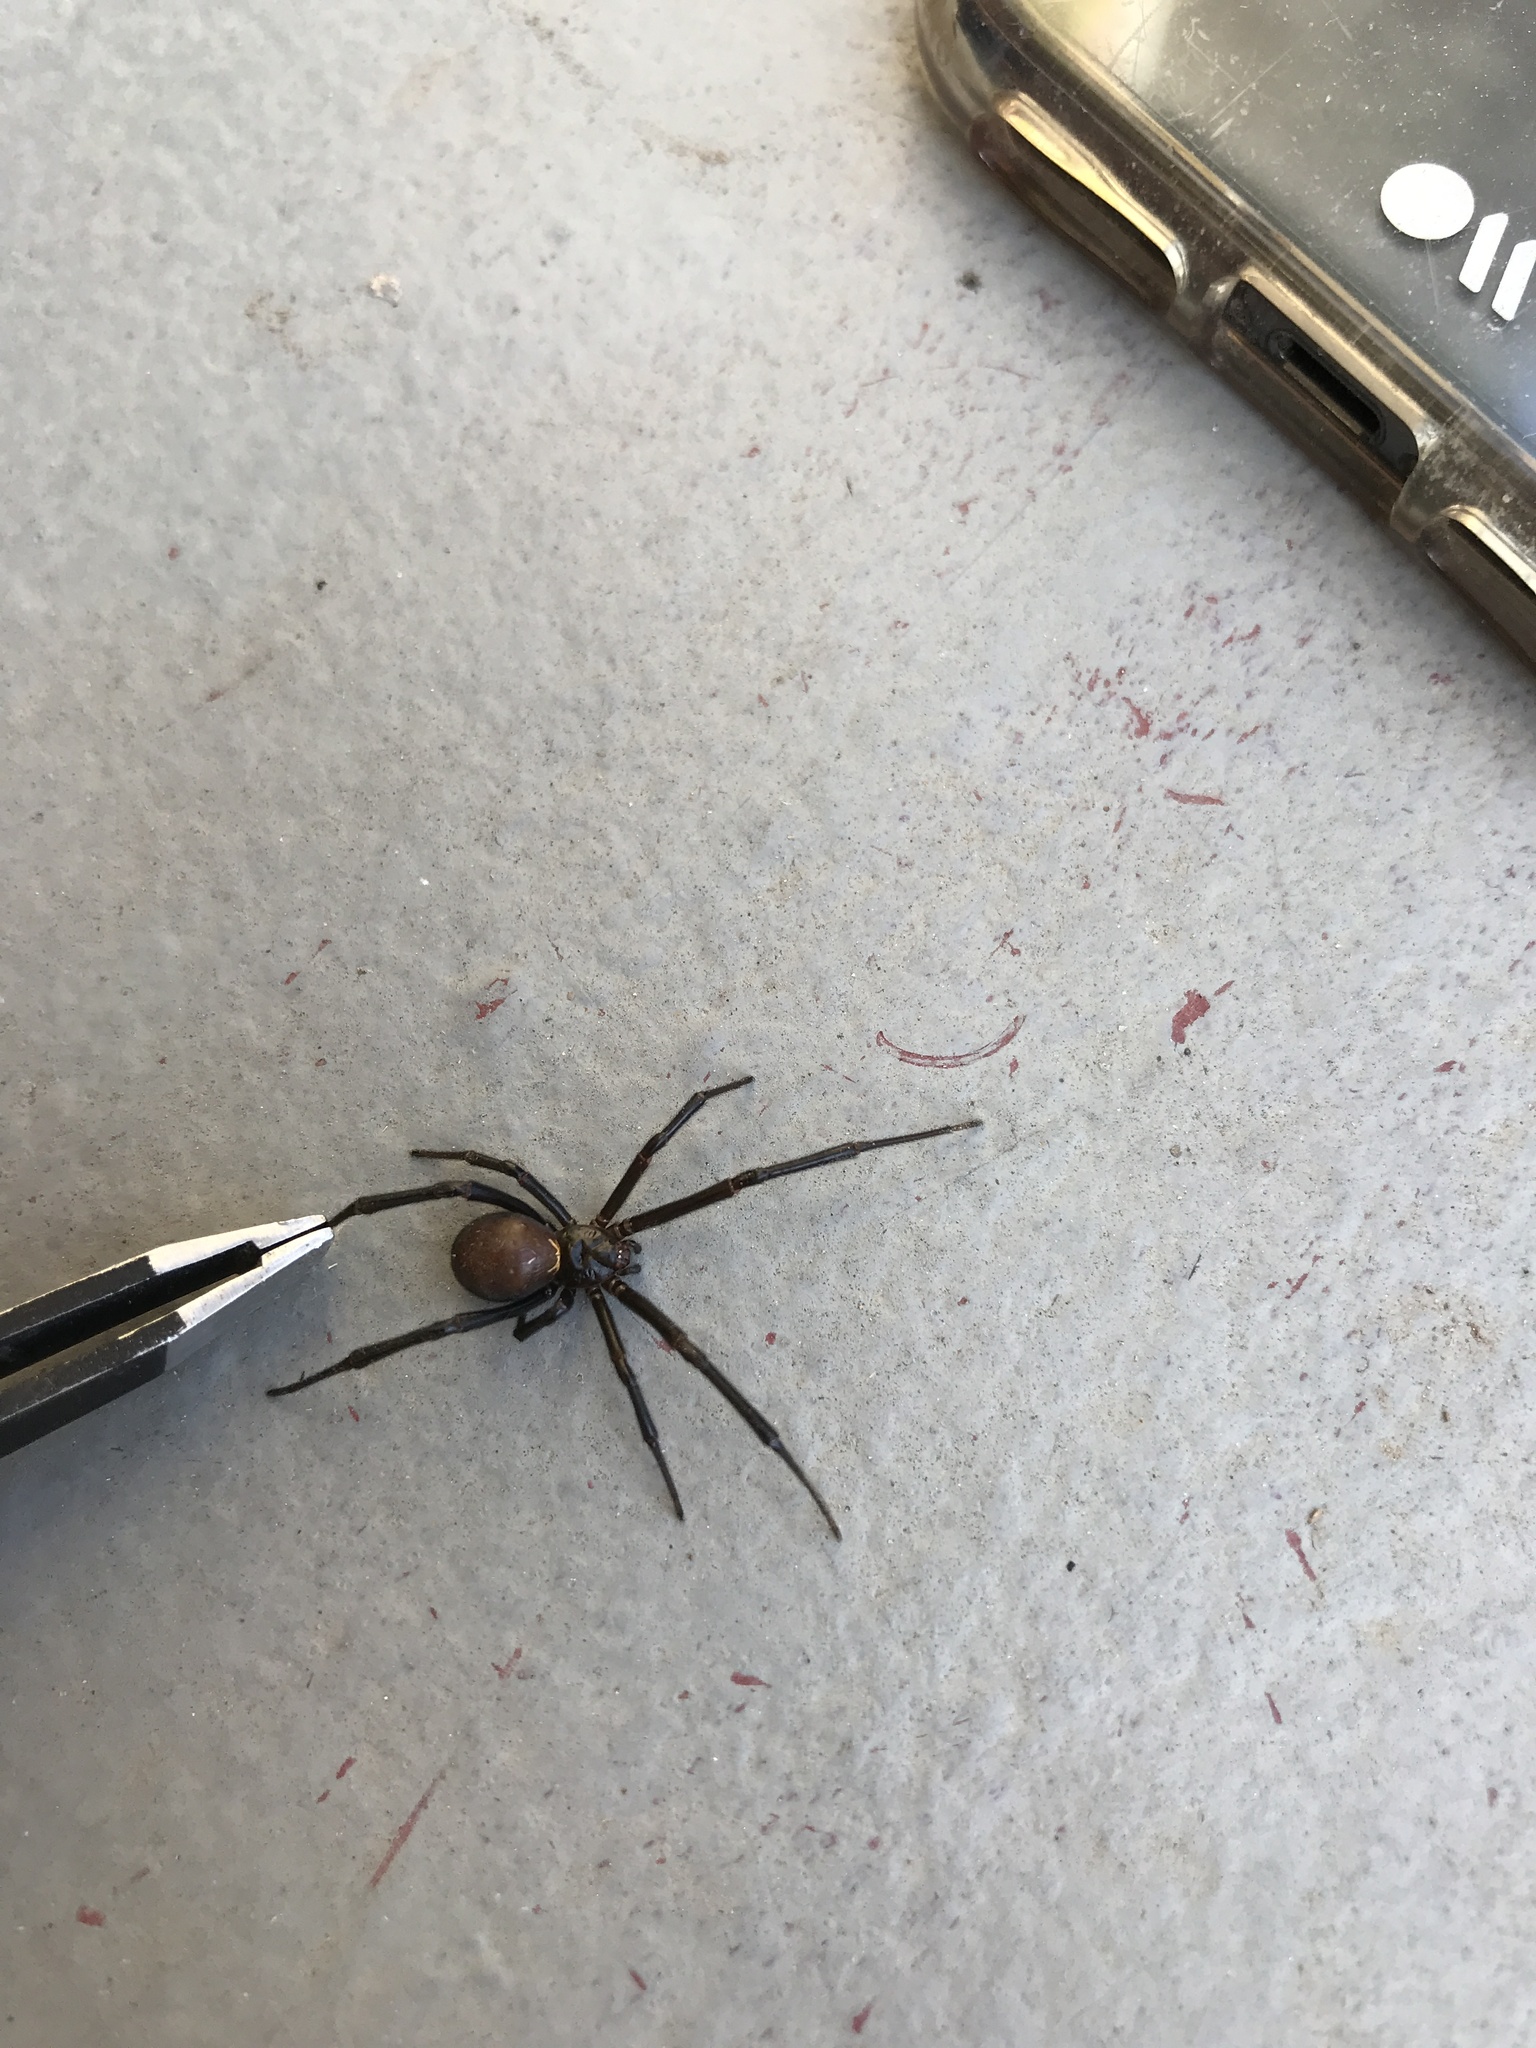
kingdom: Animalia
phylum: Arthropoda
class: Arachnida
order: Araneae
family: Theridiidae
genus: Latrodectus
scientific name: Latrodectus hesperus
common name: Western black widow
